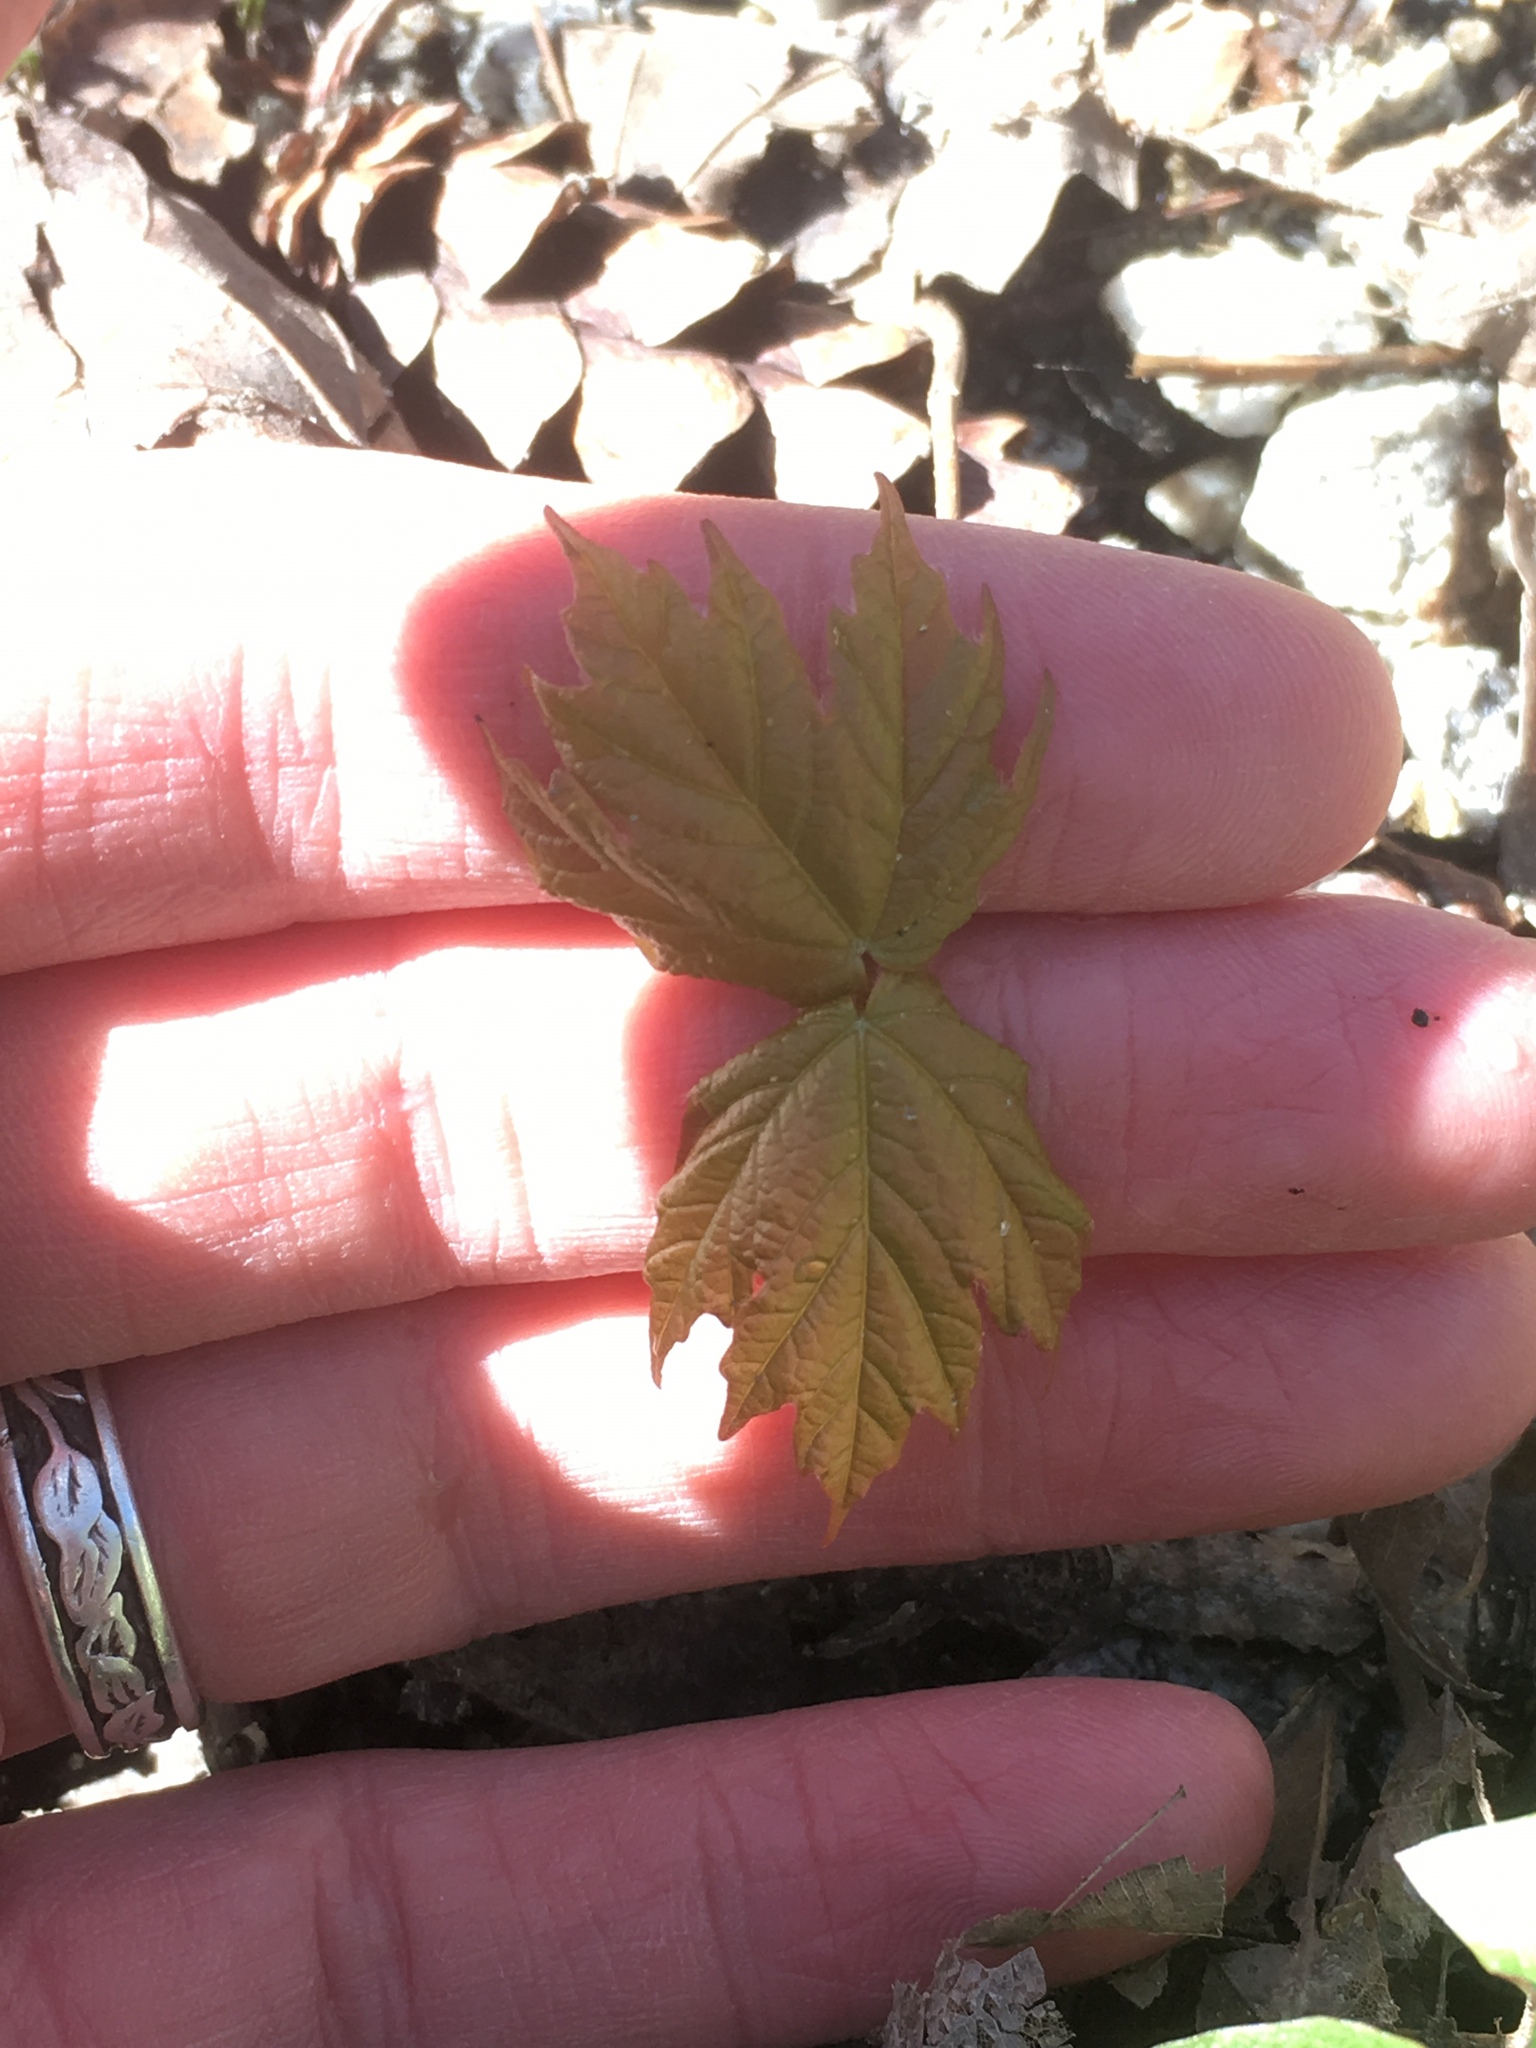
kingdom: Plantae
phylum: Tracheophyta
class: Magnoliopsida
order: Sapindales
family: Sapindaceae
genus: Acer
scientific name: Acer saccharum
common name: Sugar maple
